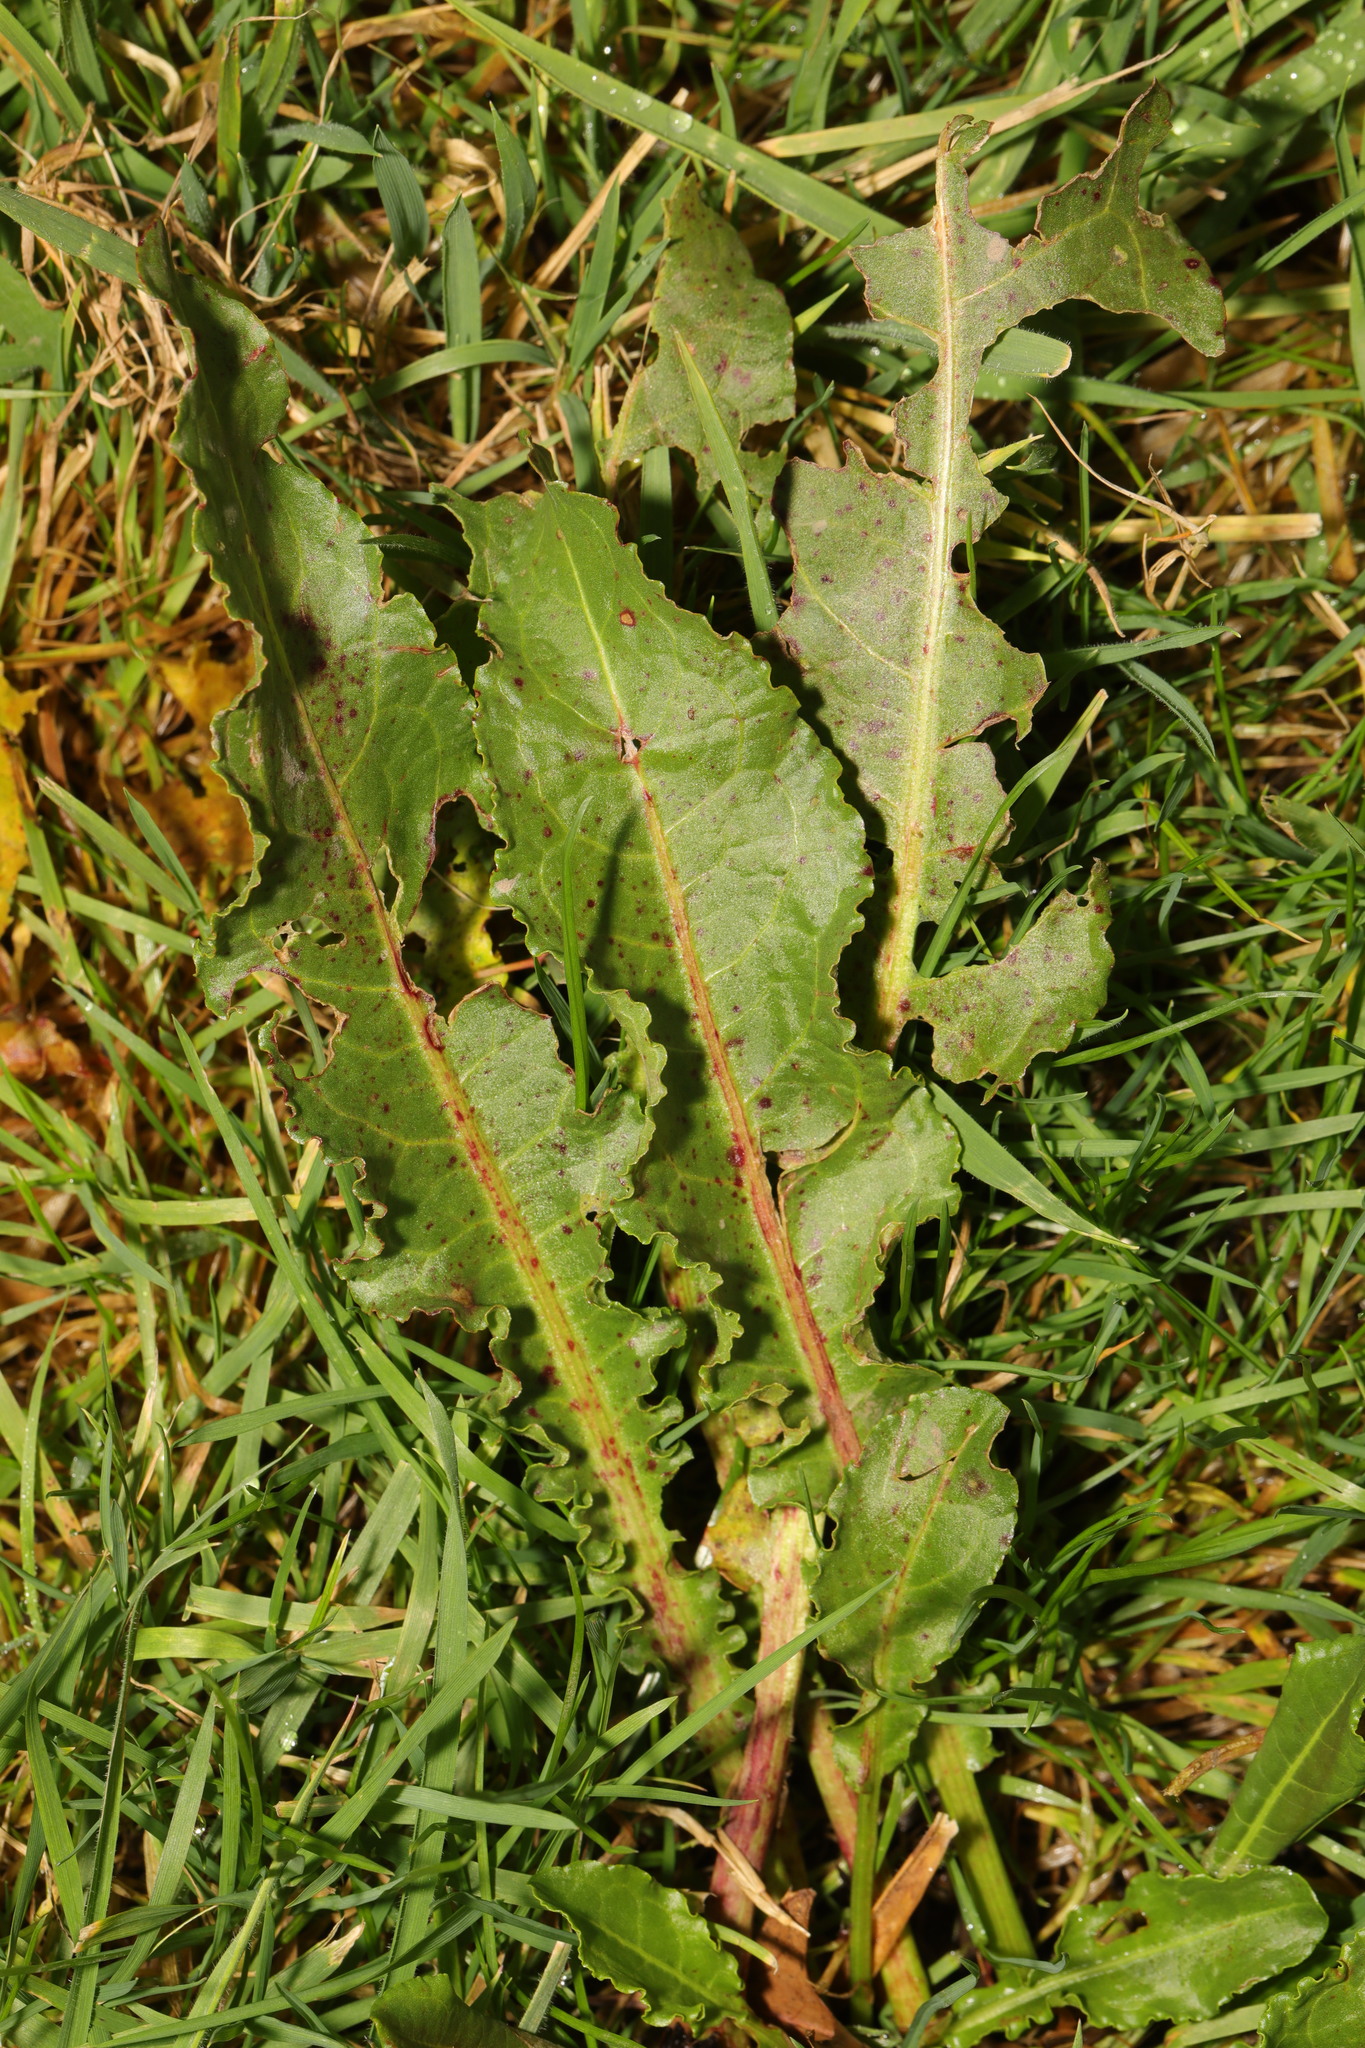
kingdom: Plantae
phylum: Tracheophyta
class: Magnoliopsida
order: Caryophyllales
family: Polygonaceae
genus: Rumex
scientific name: Rumex crispus
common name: Curled dock
